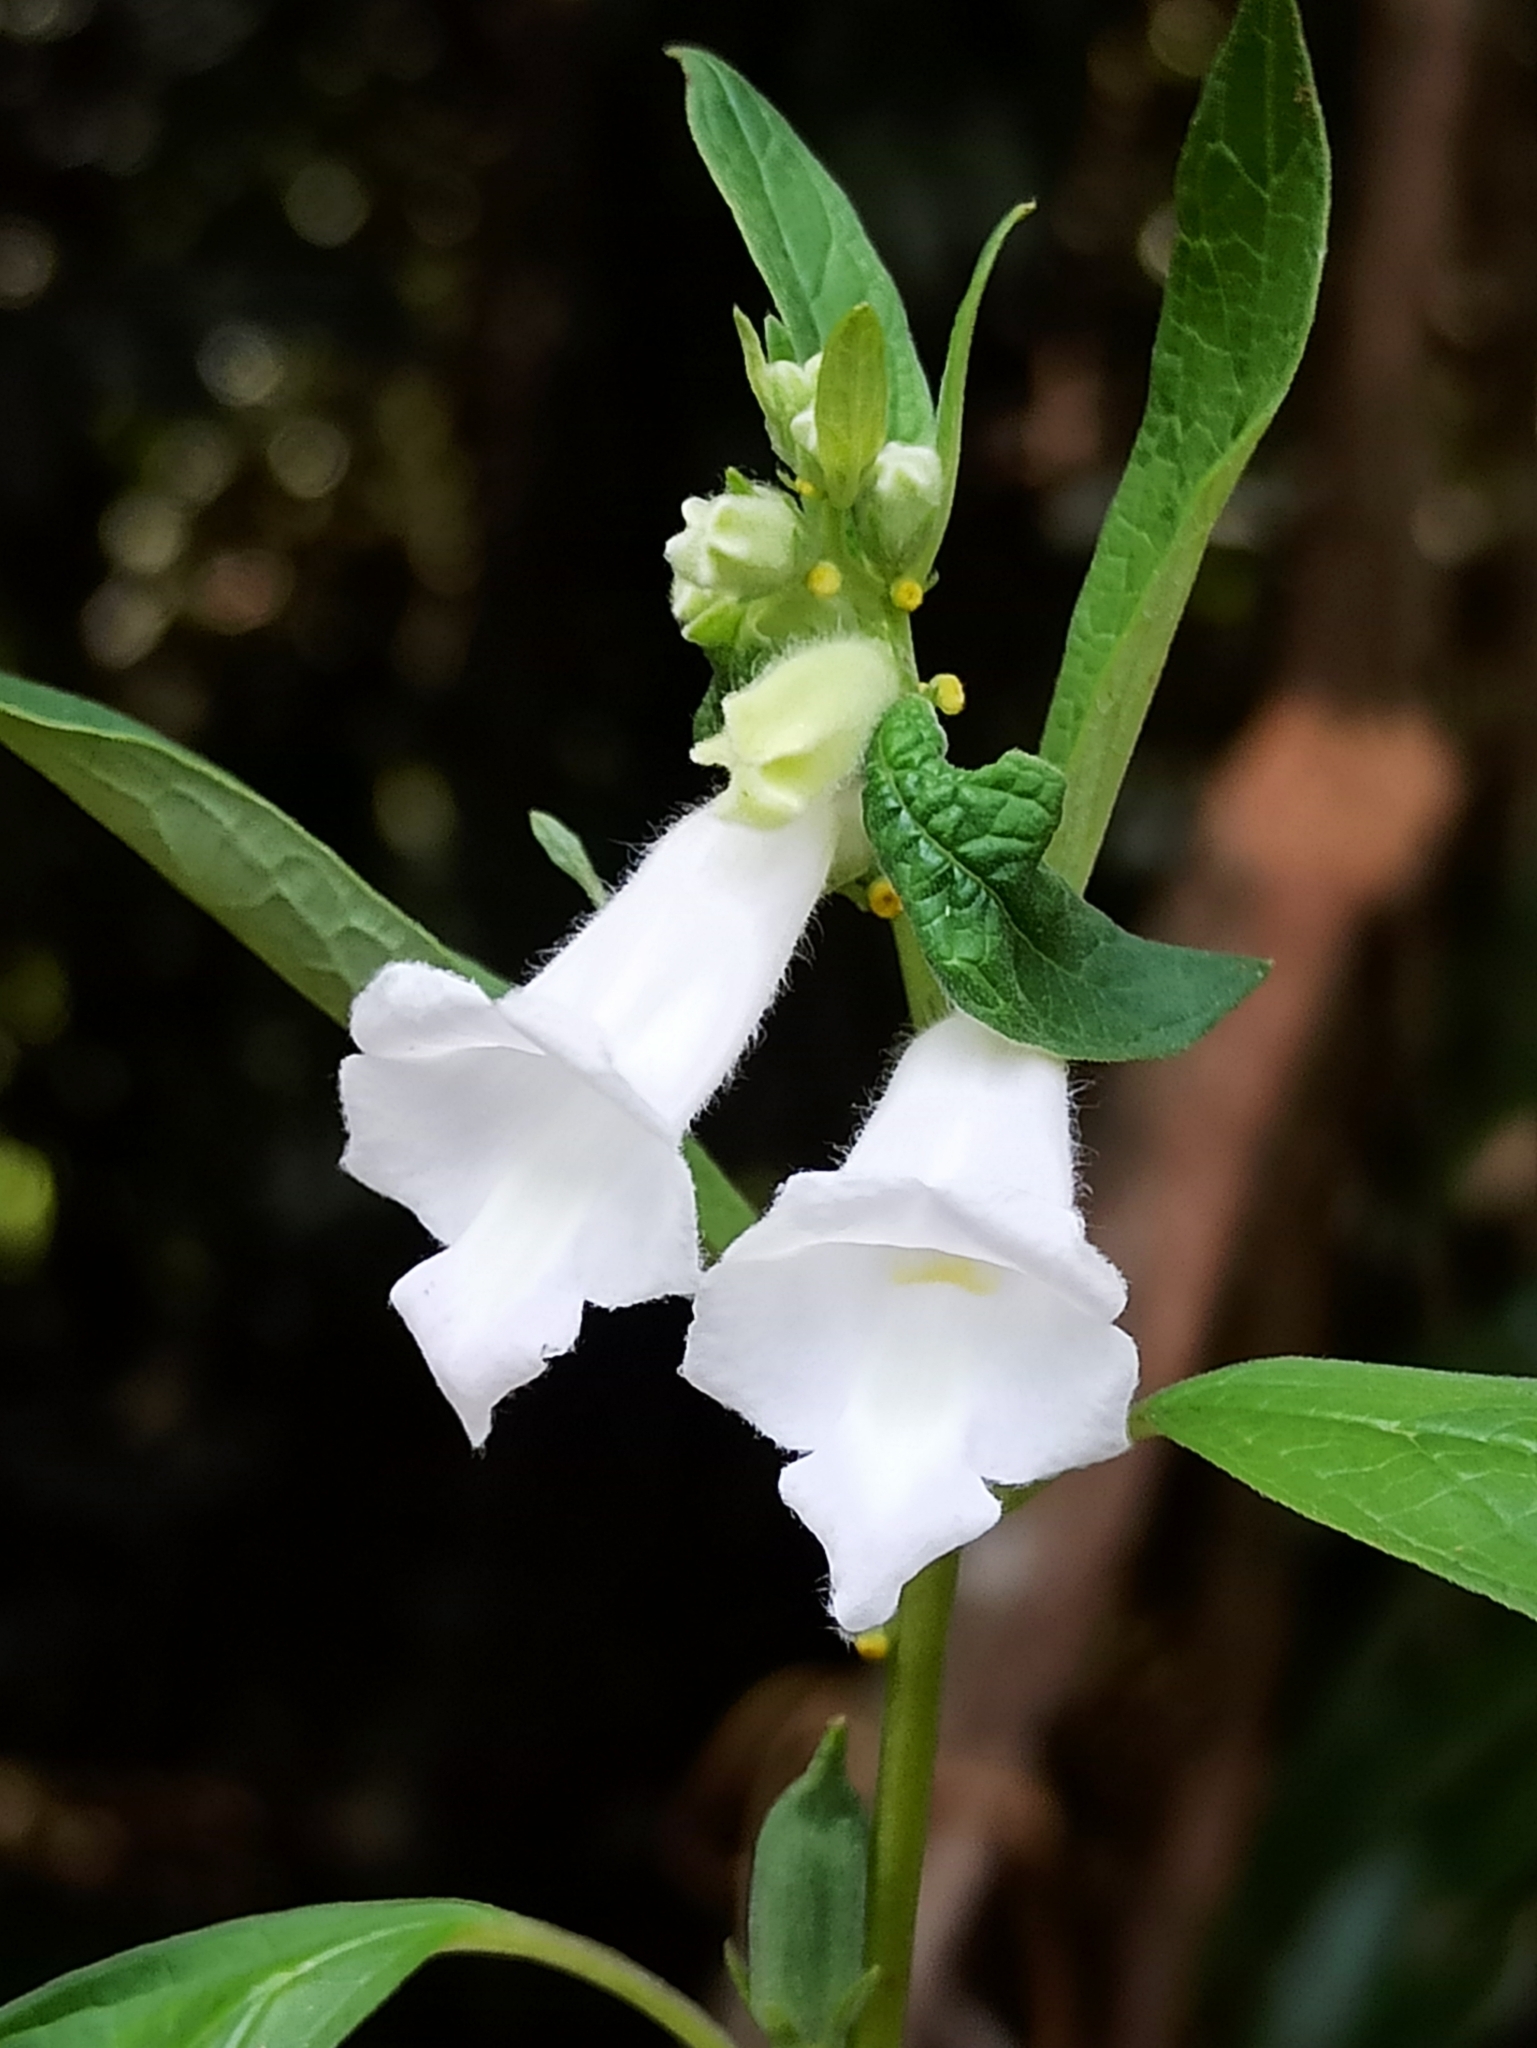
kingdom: Plantae
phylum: Tracheophyta
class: Magnoliopsida
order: Lamiales
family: Pedaliaceae
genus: Sesamum
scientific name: Sesamum indicum
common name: Sesame
